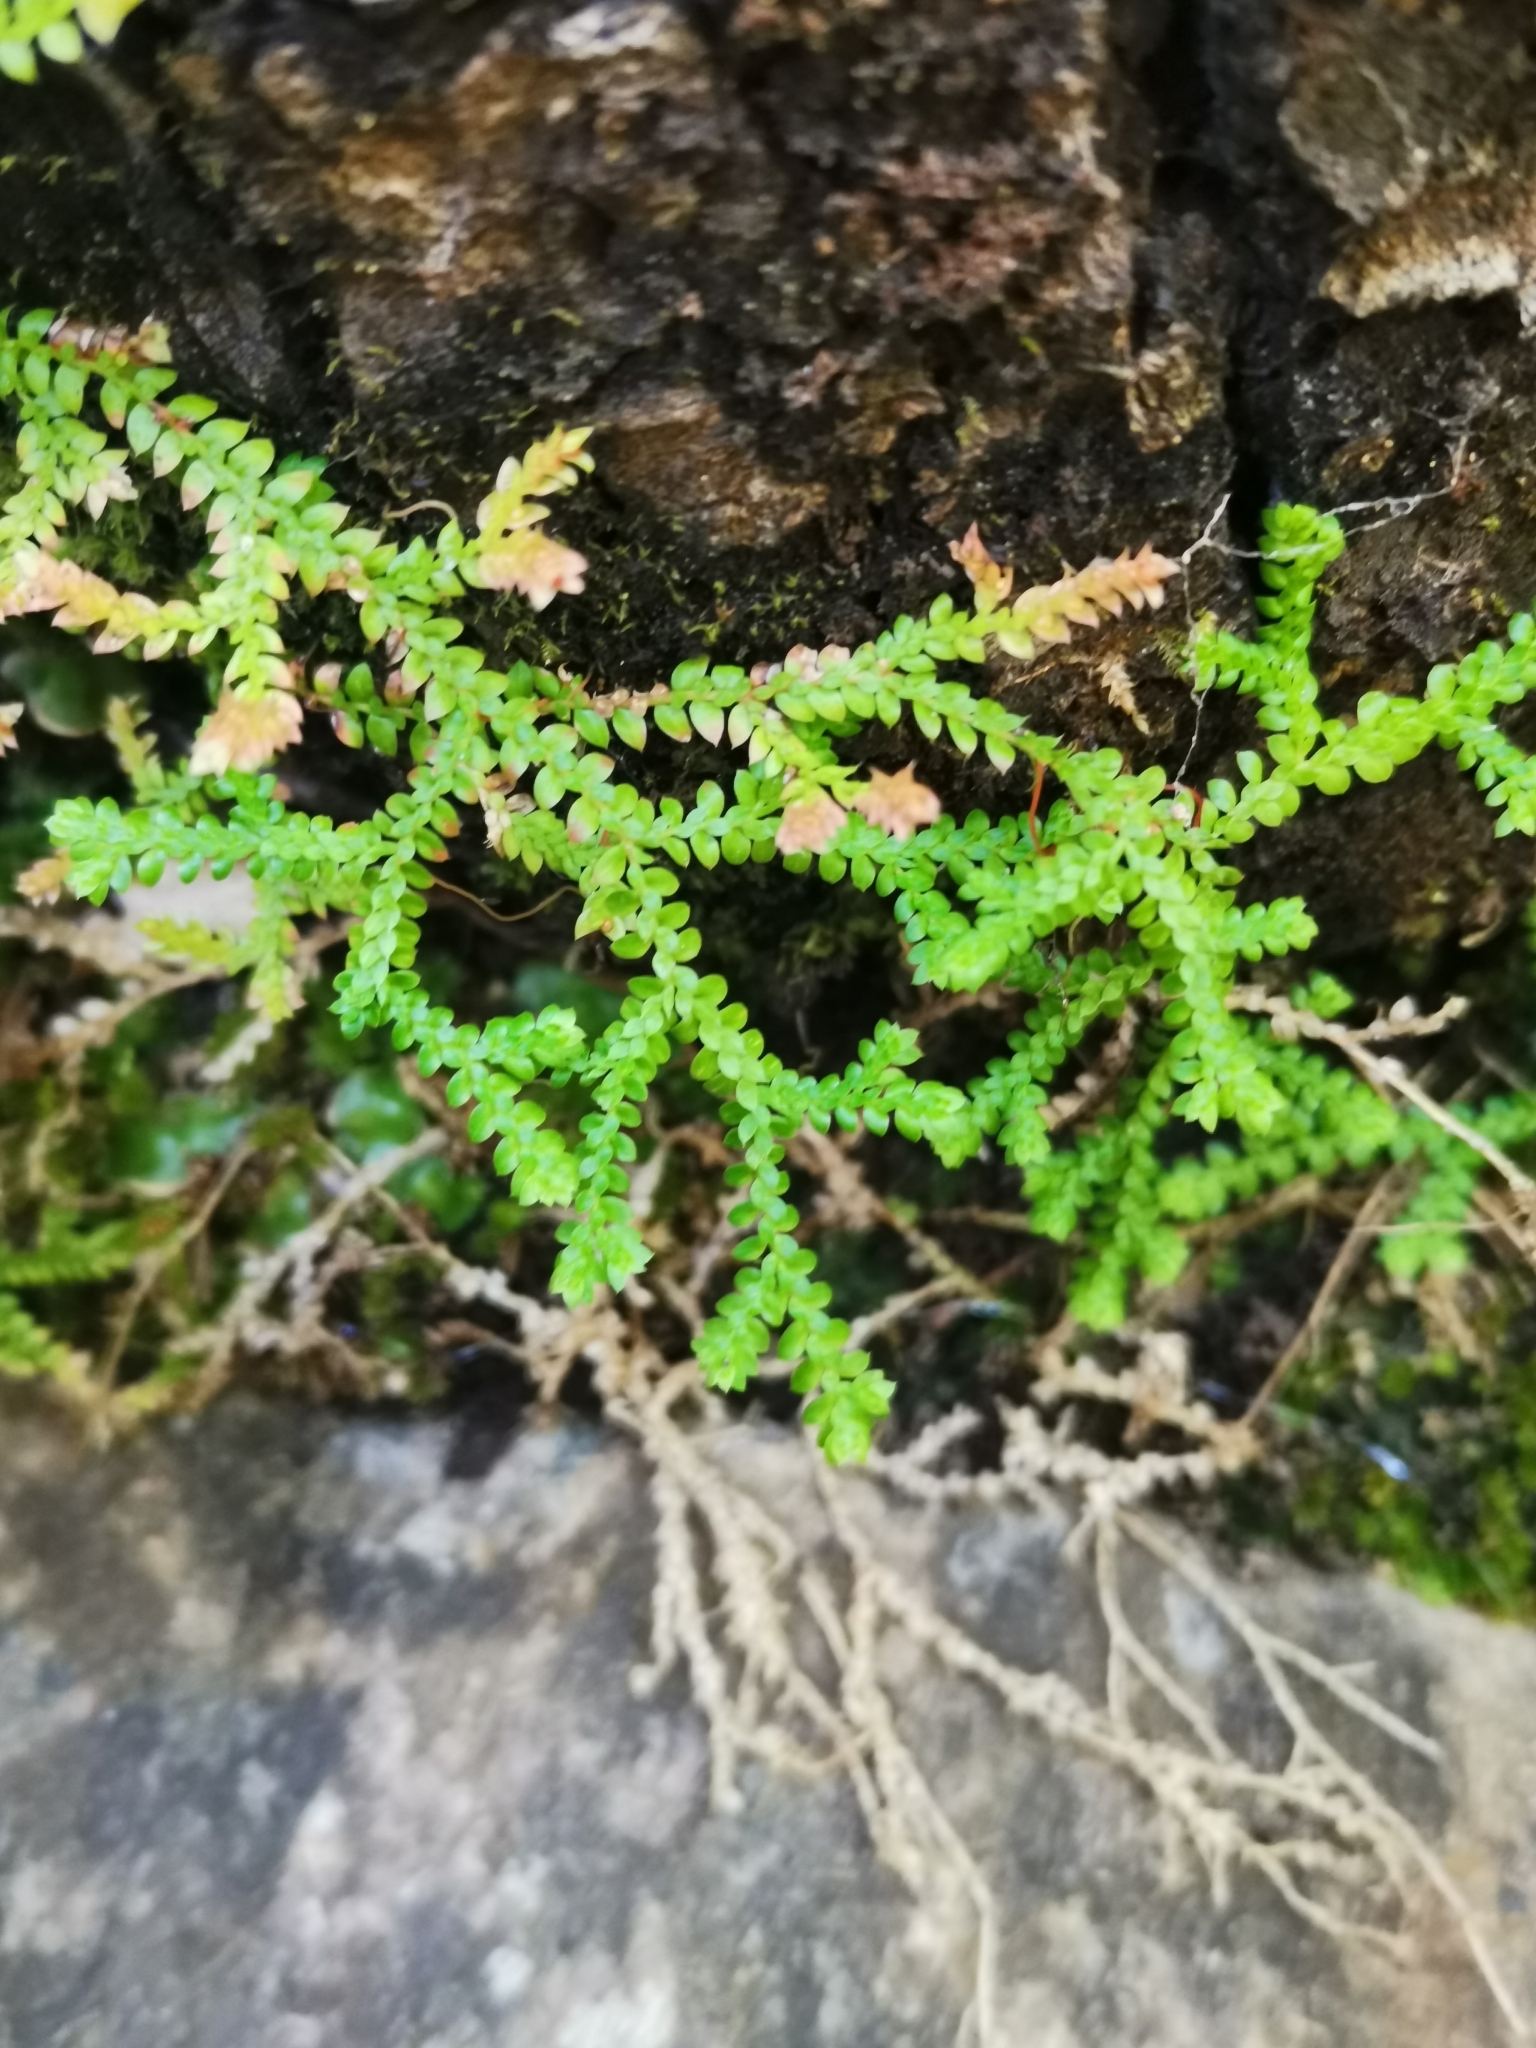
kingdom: Plantae
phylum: Tracheophyta
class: Lycopodiopsida
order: Selaginellales
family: Selaginellaceae
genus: Selaginella
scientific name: Selaginella denticulata
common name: Toothed-leaved clubmoss
